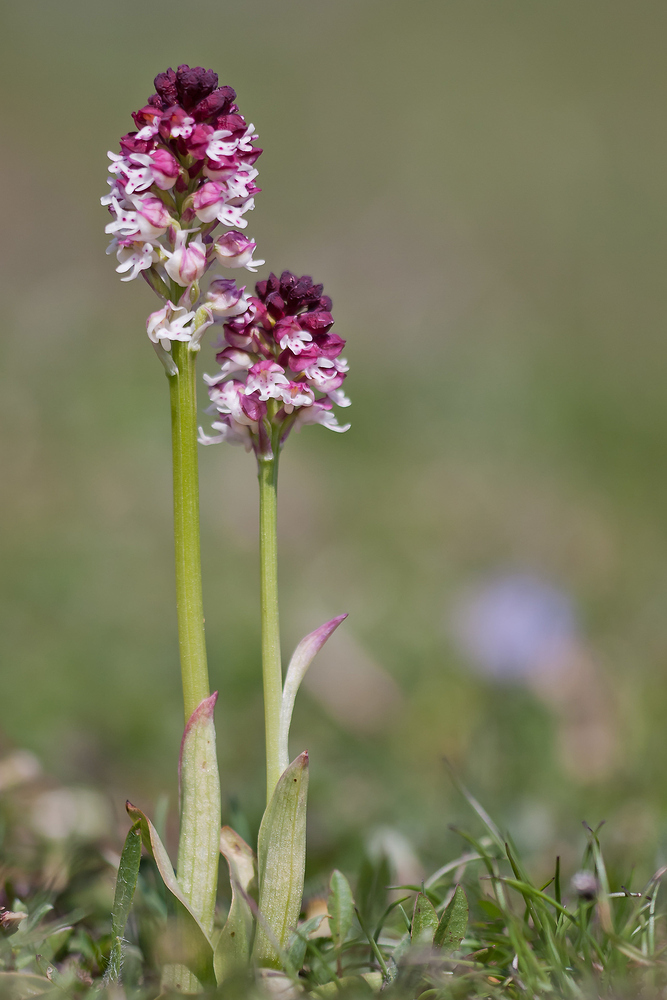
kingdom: Plantae
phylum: Tracheophyta
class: Liliopsida
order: Asparagales
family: Orchidaceae
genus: Neotinea
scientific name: Neotinea ustulata
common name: Burnt orchid
